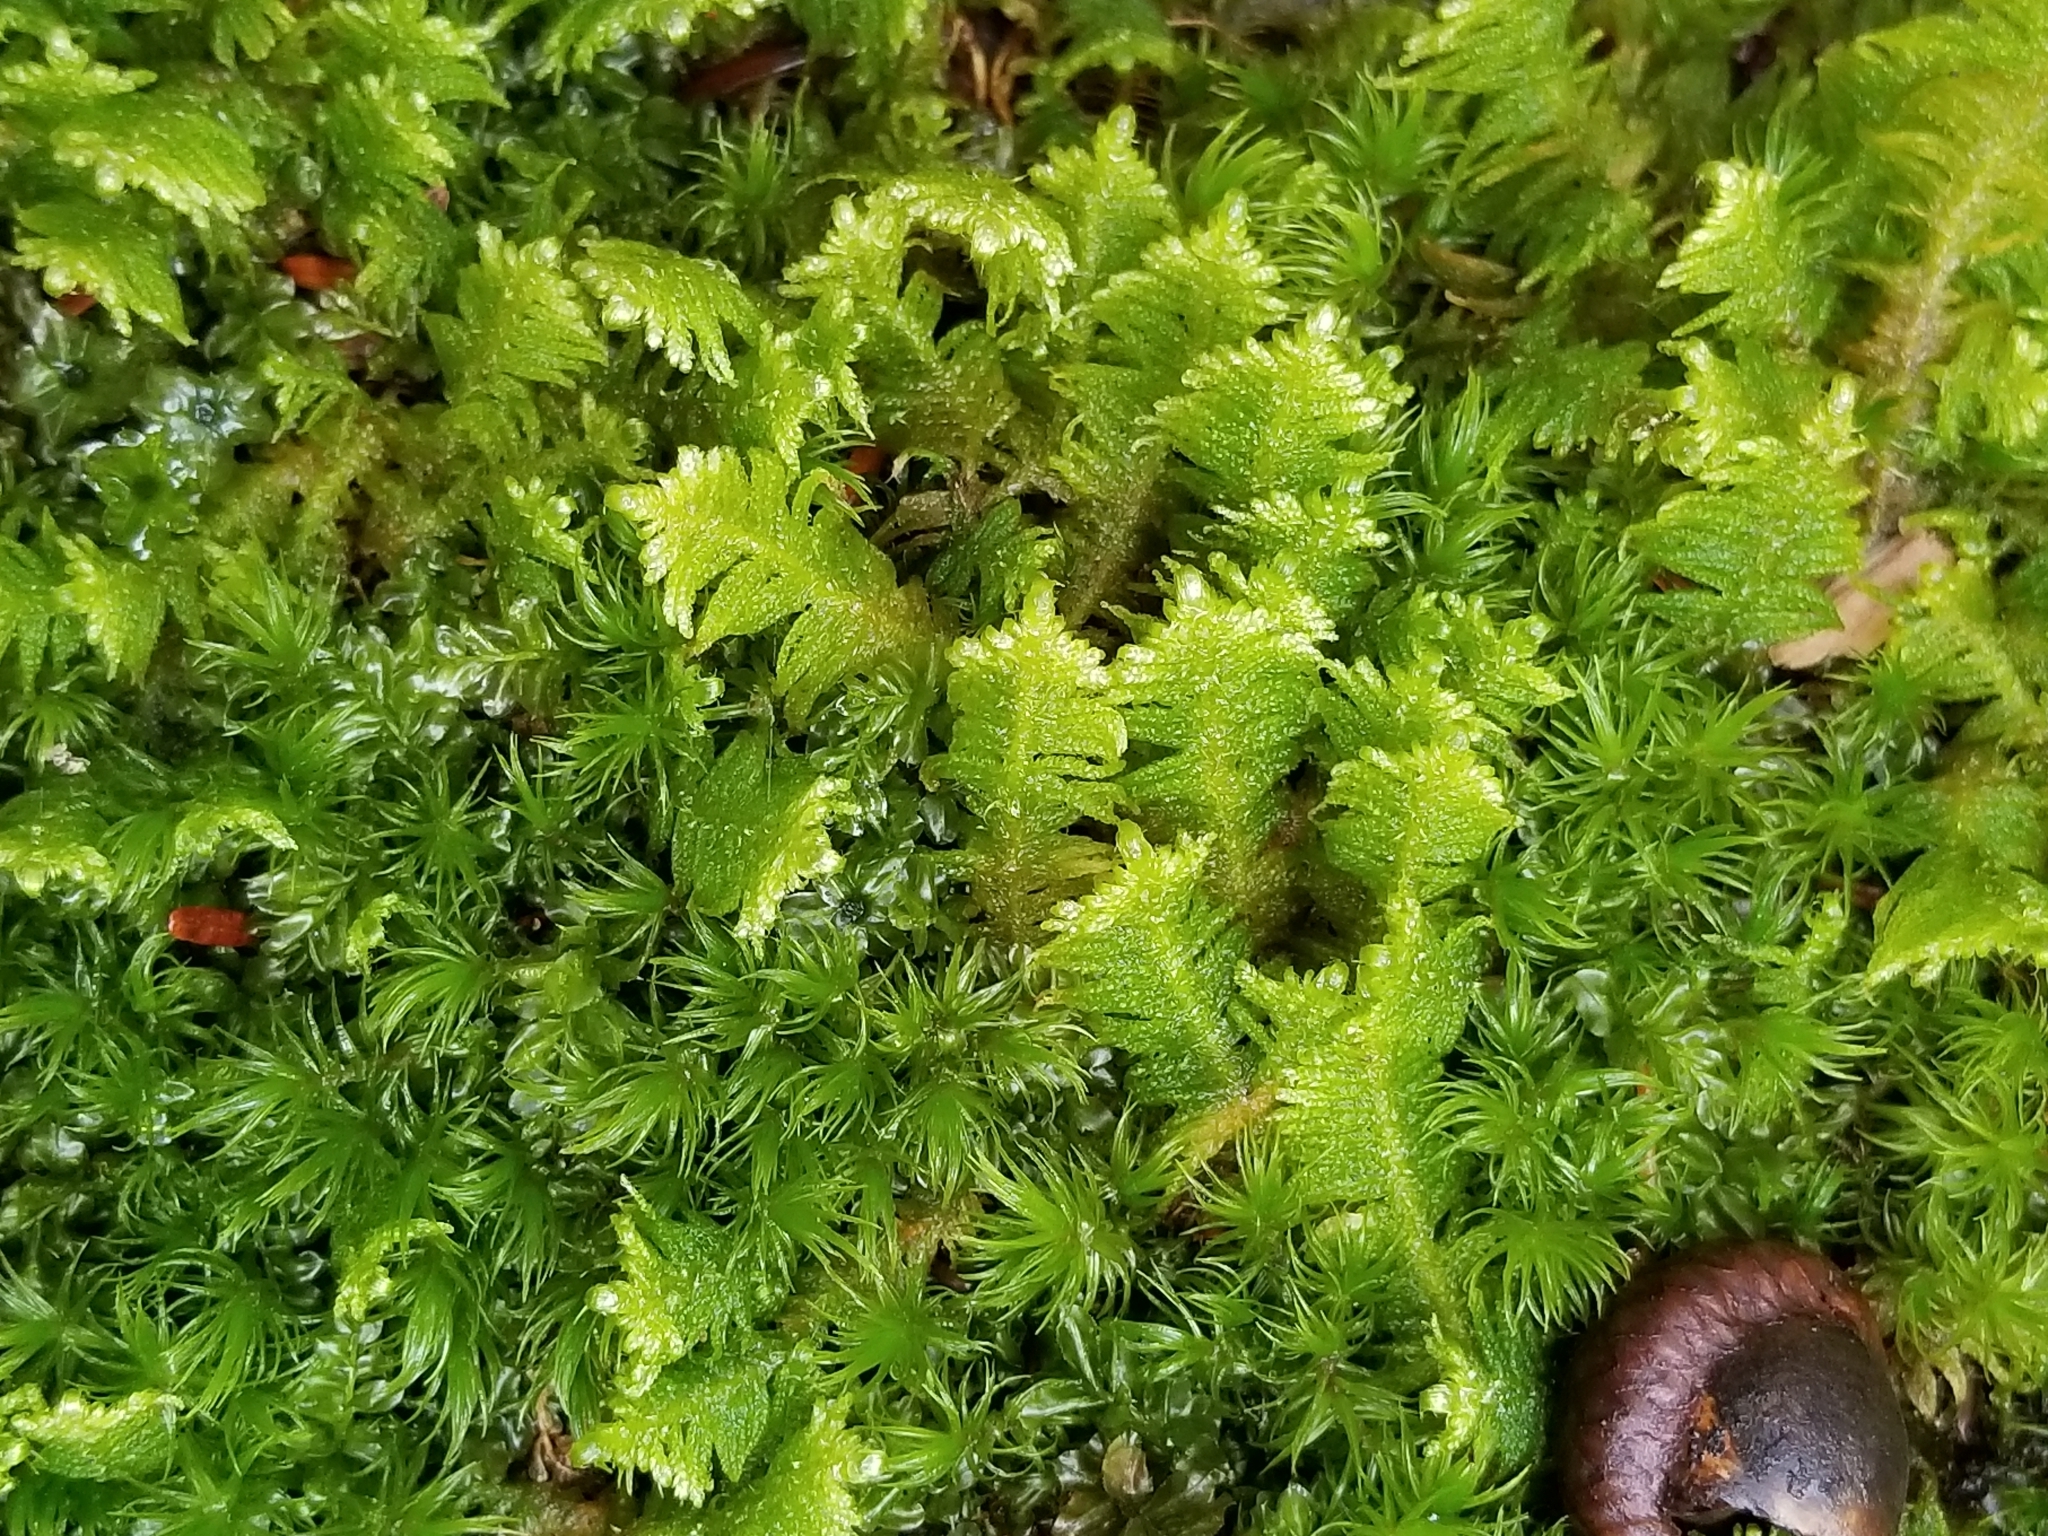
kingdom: Plantae
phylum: Bryophyta
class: Bryopsida
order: Hypnales
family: Pylaisiaceae
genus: Ptilium
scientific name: Ptilium crista-castrensis
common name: Knight's plume moss
